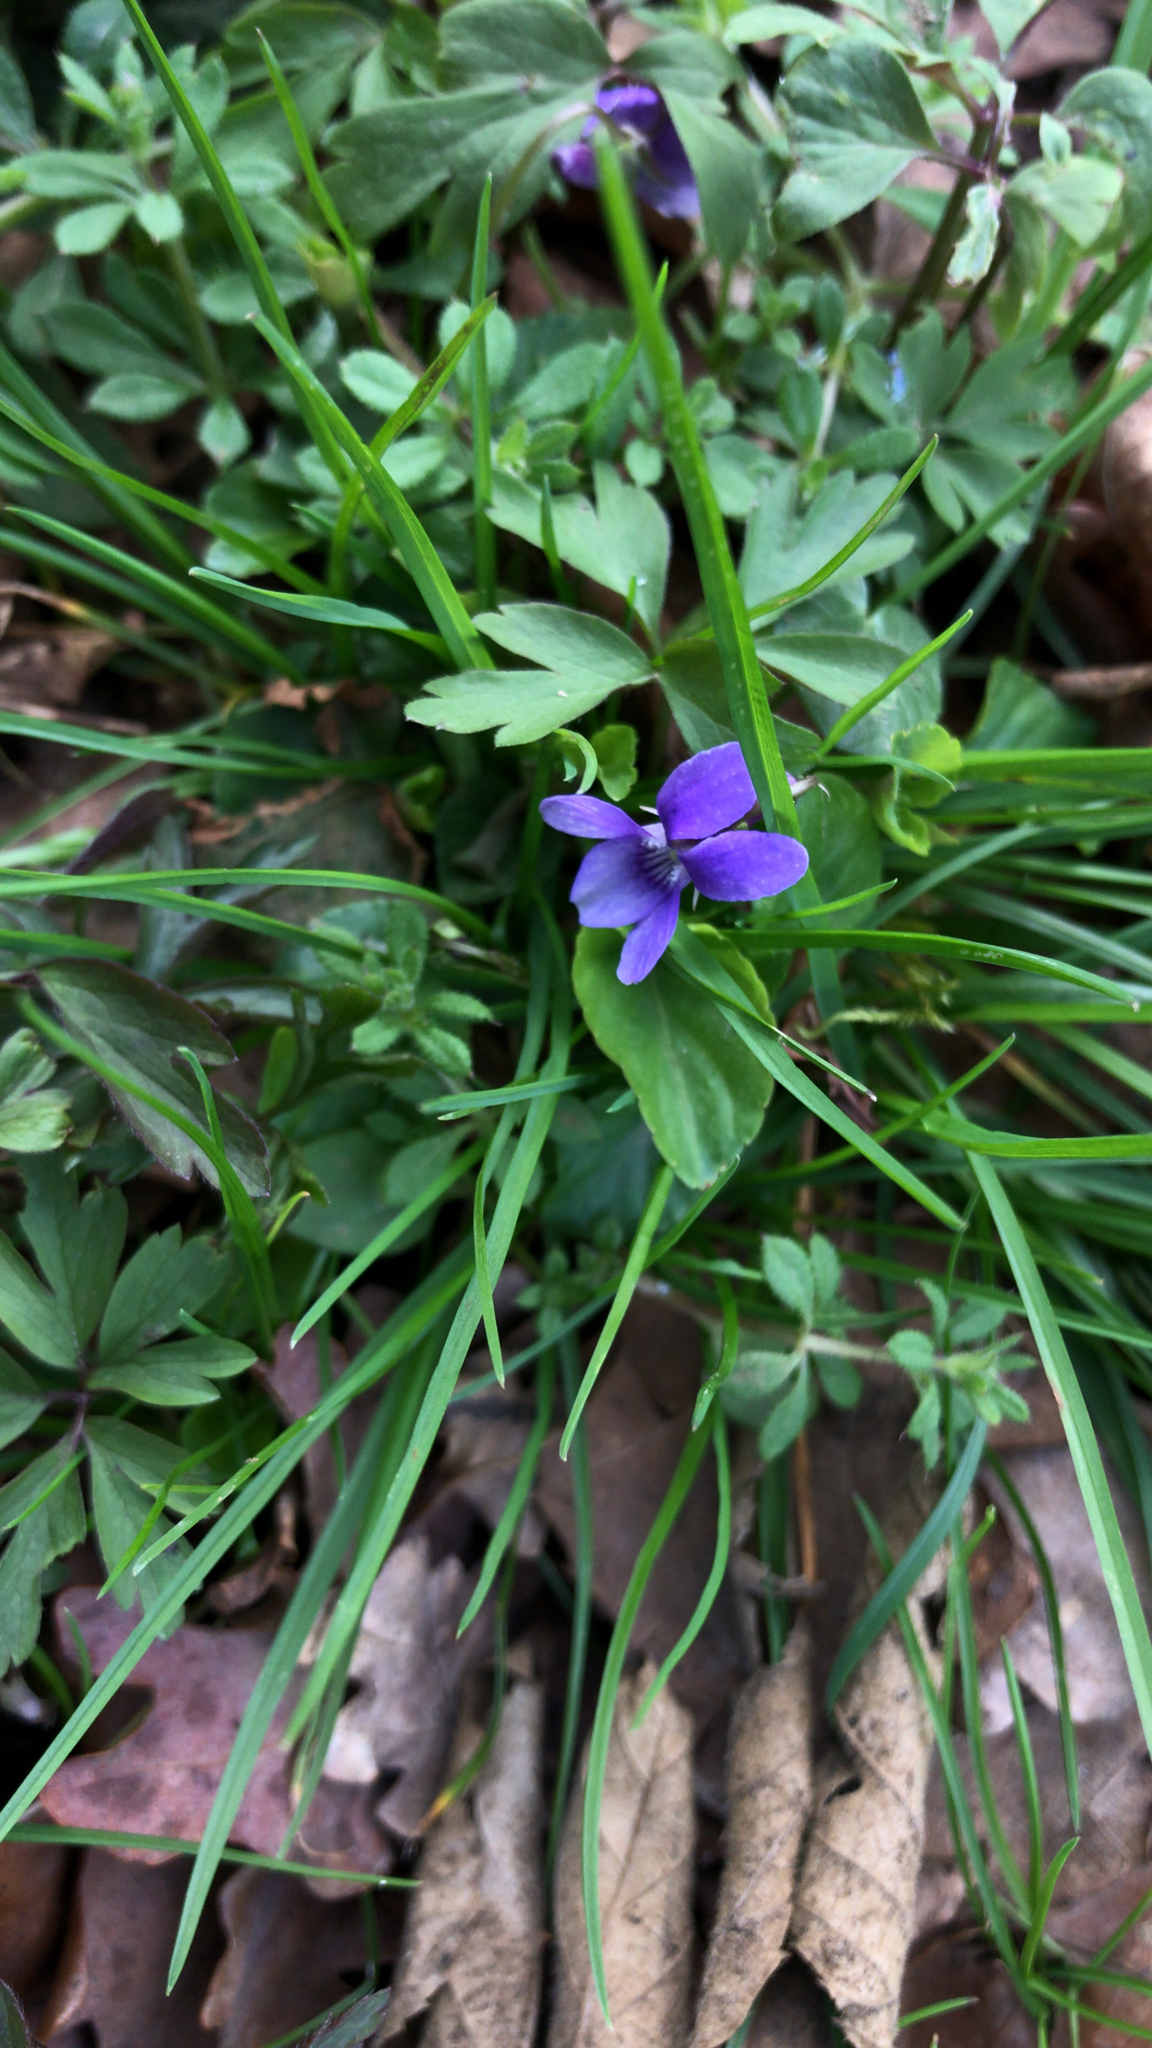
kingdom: Plantae
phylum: Tracheophyta
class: Magnoliopsida
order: Malpighiales
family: Violaceae
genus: Viola
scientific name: Viola reichenbachiana
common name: Early dog-violet
